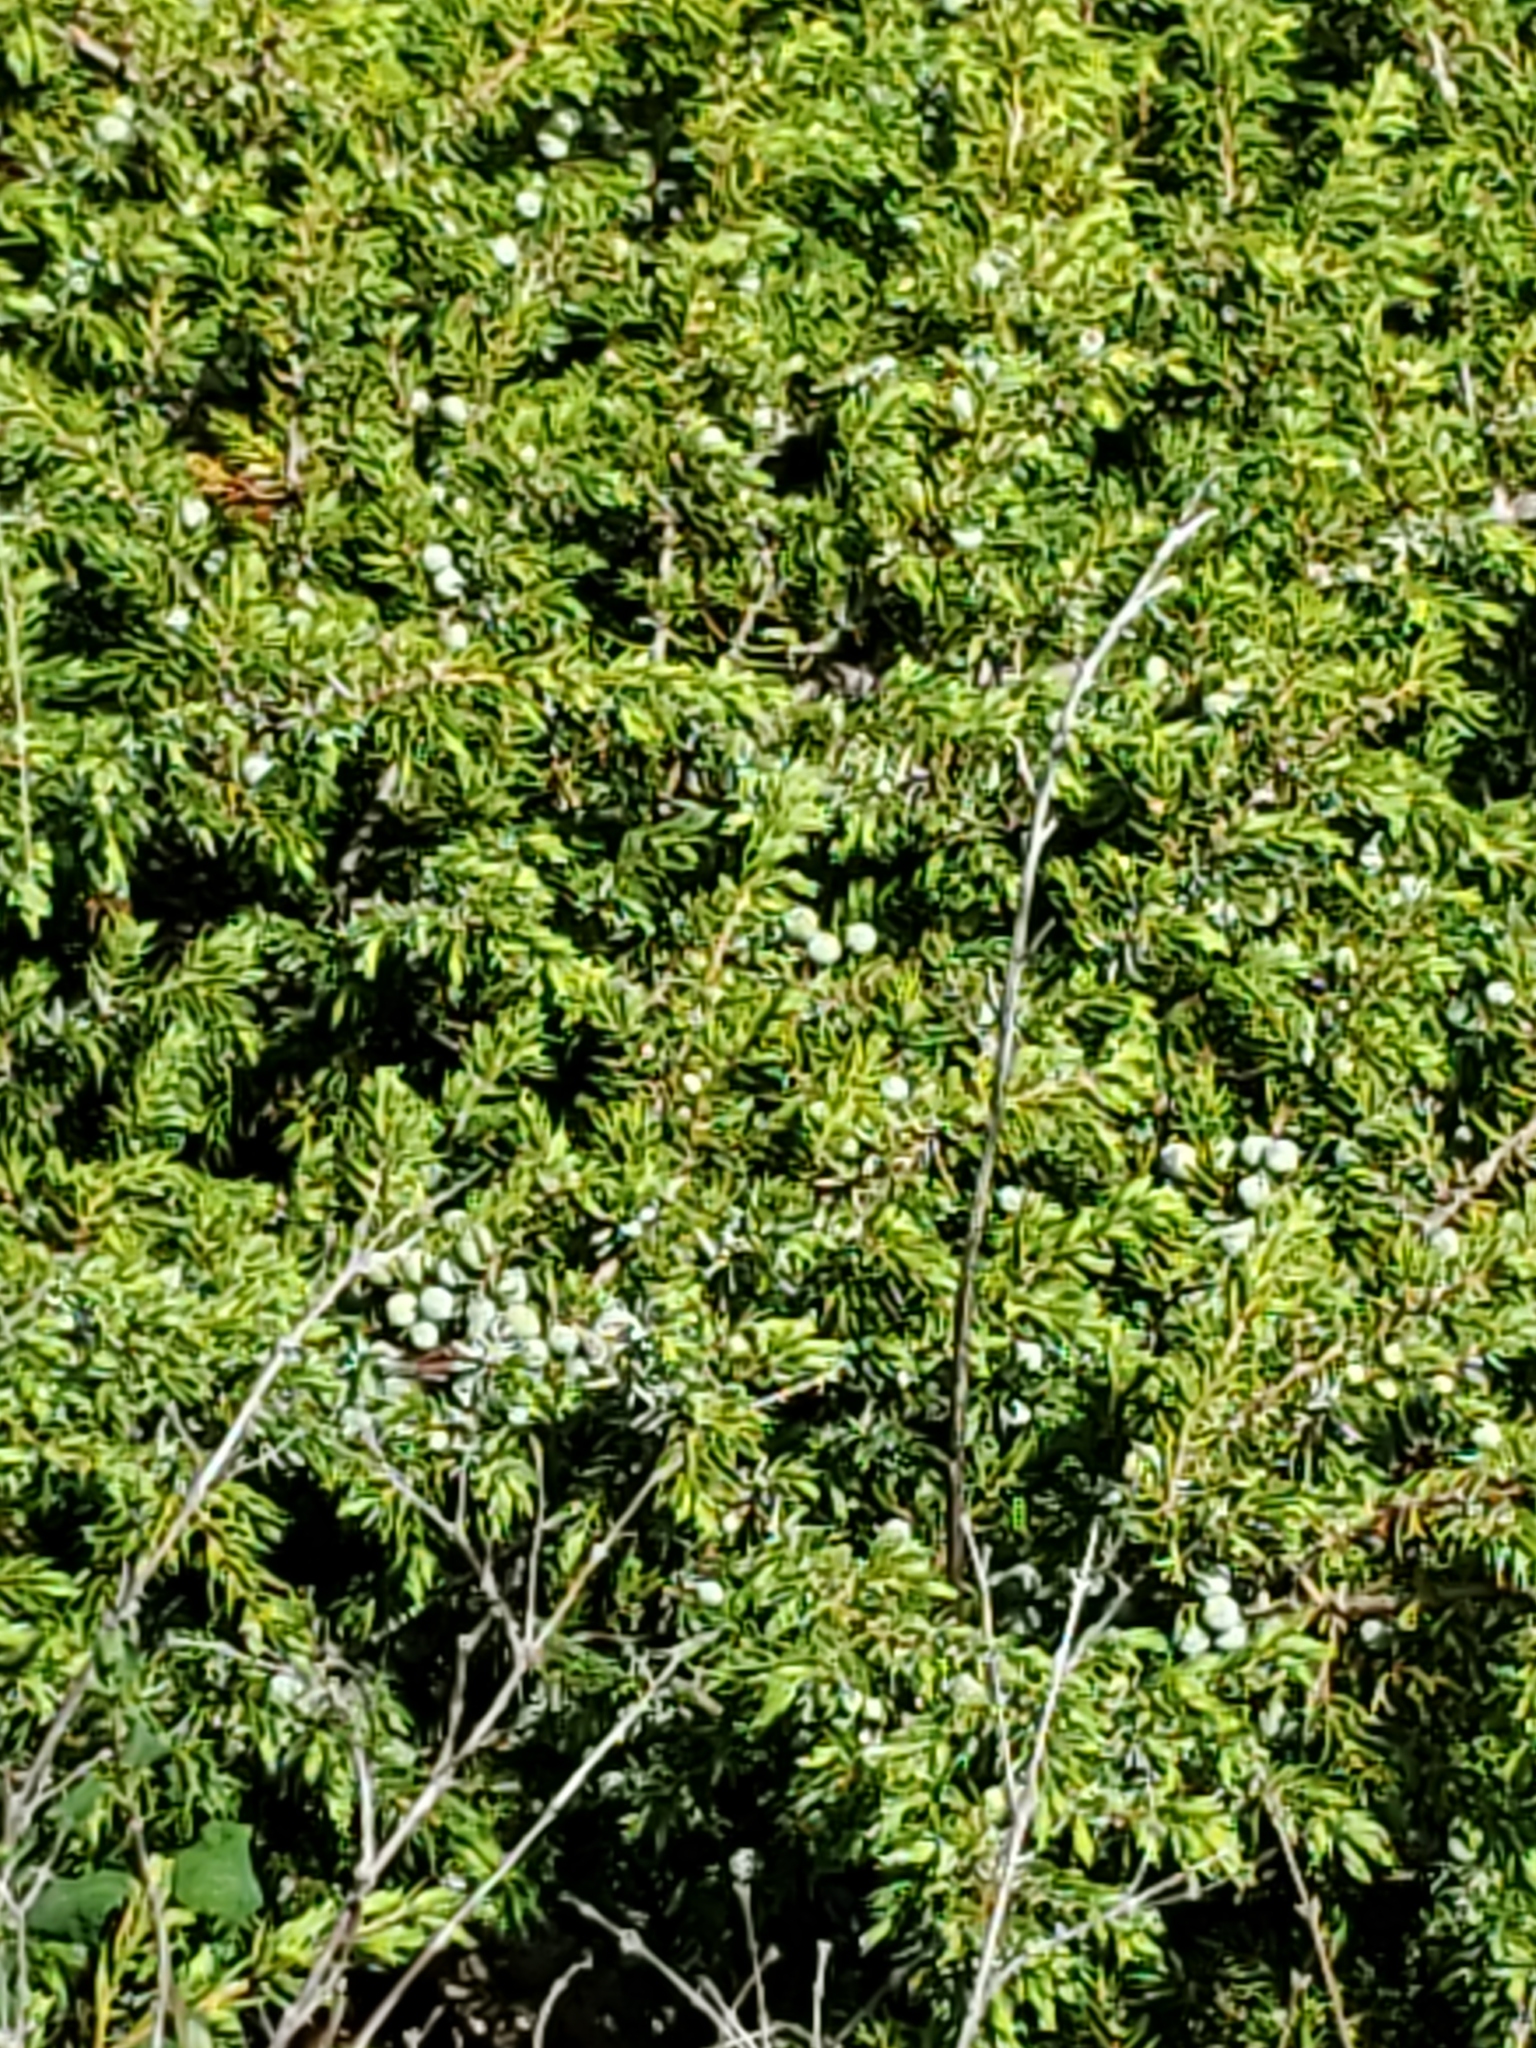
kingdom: Plantae
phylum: Tracheophyta
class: Pinopsida
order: Pinales
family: Cupressaceae
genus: Juniperus
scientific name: Juniperus communis
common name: Common juniper
